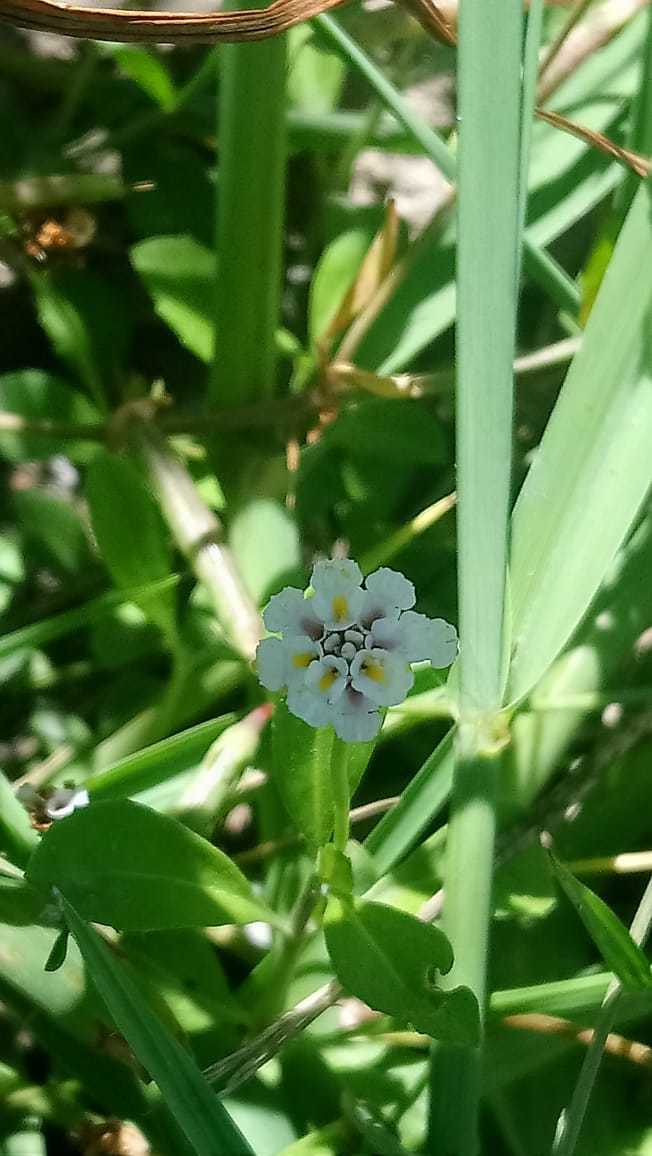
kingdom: Plantae
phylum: Tracheophyta
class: Magnoliopsida
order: Lamiales
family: Verbenaceae
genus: Phyla
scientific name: Phyla nodiflora
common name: Frogfruit
